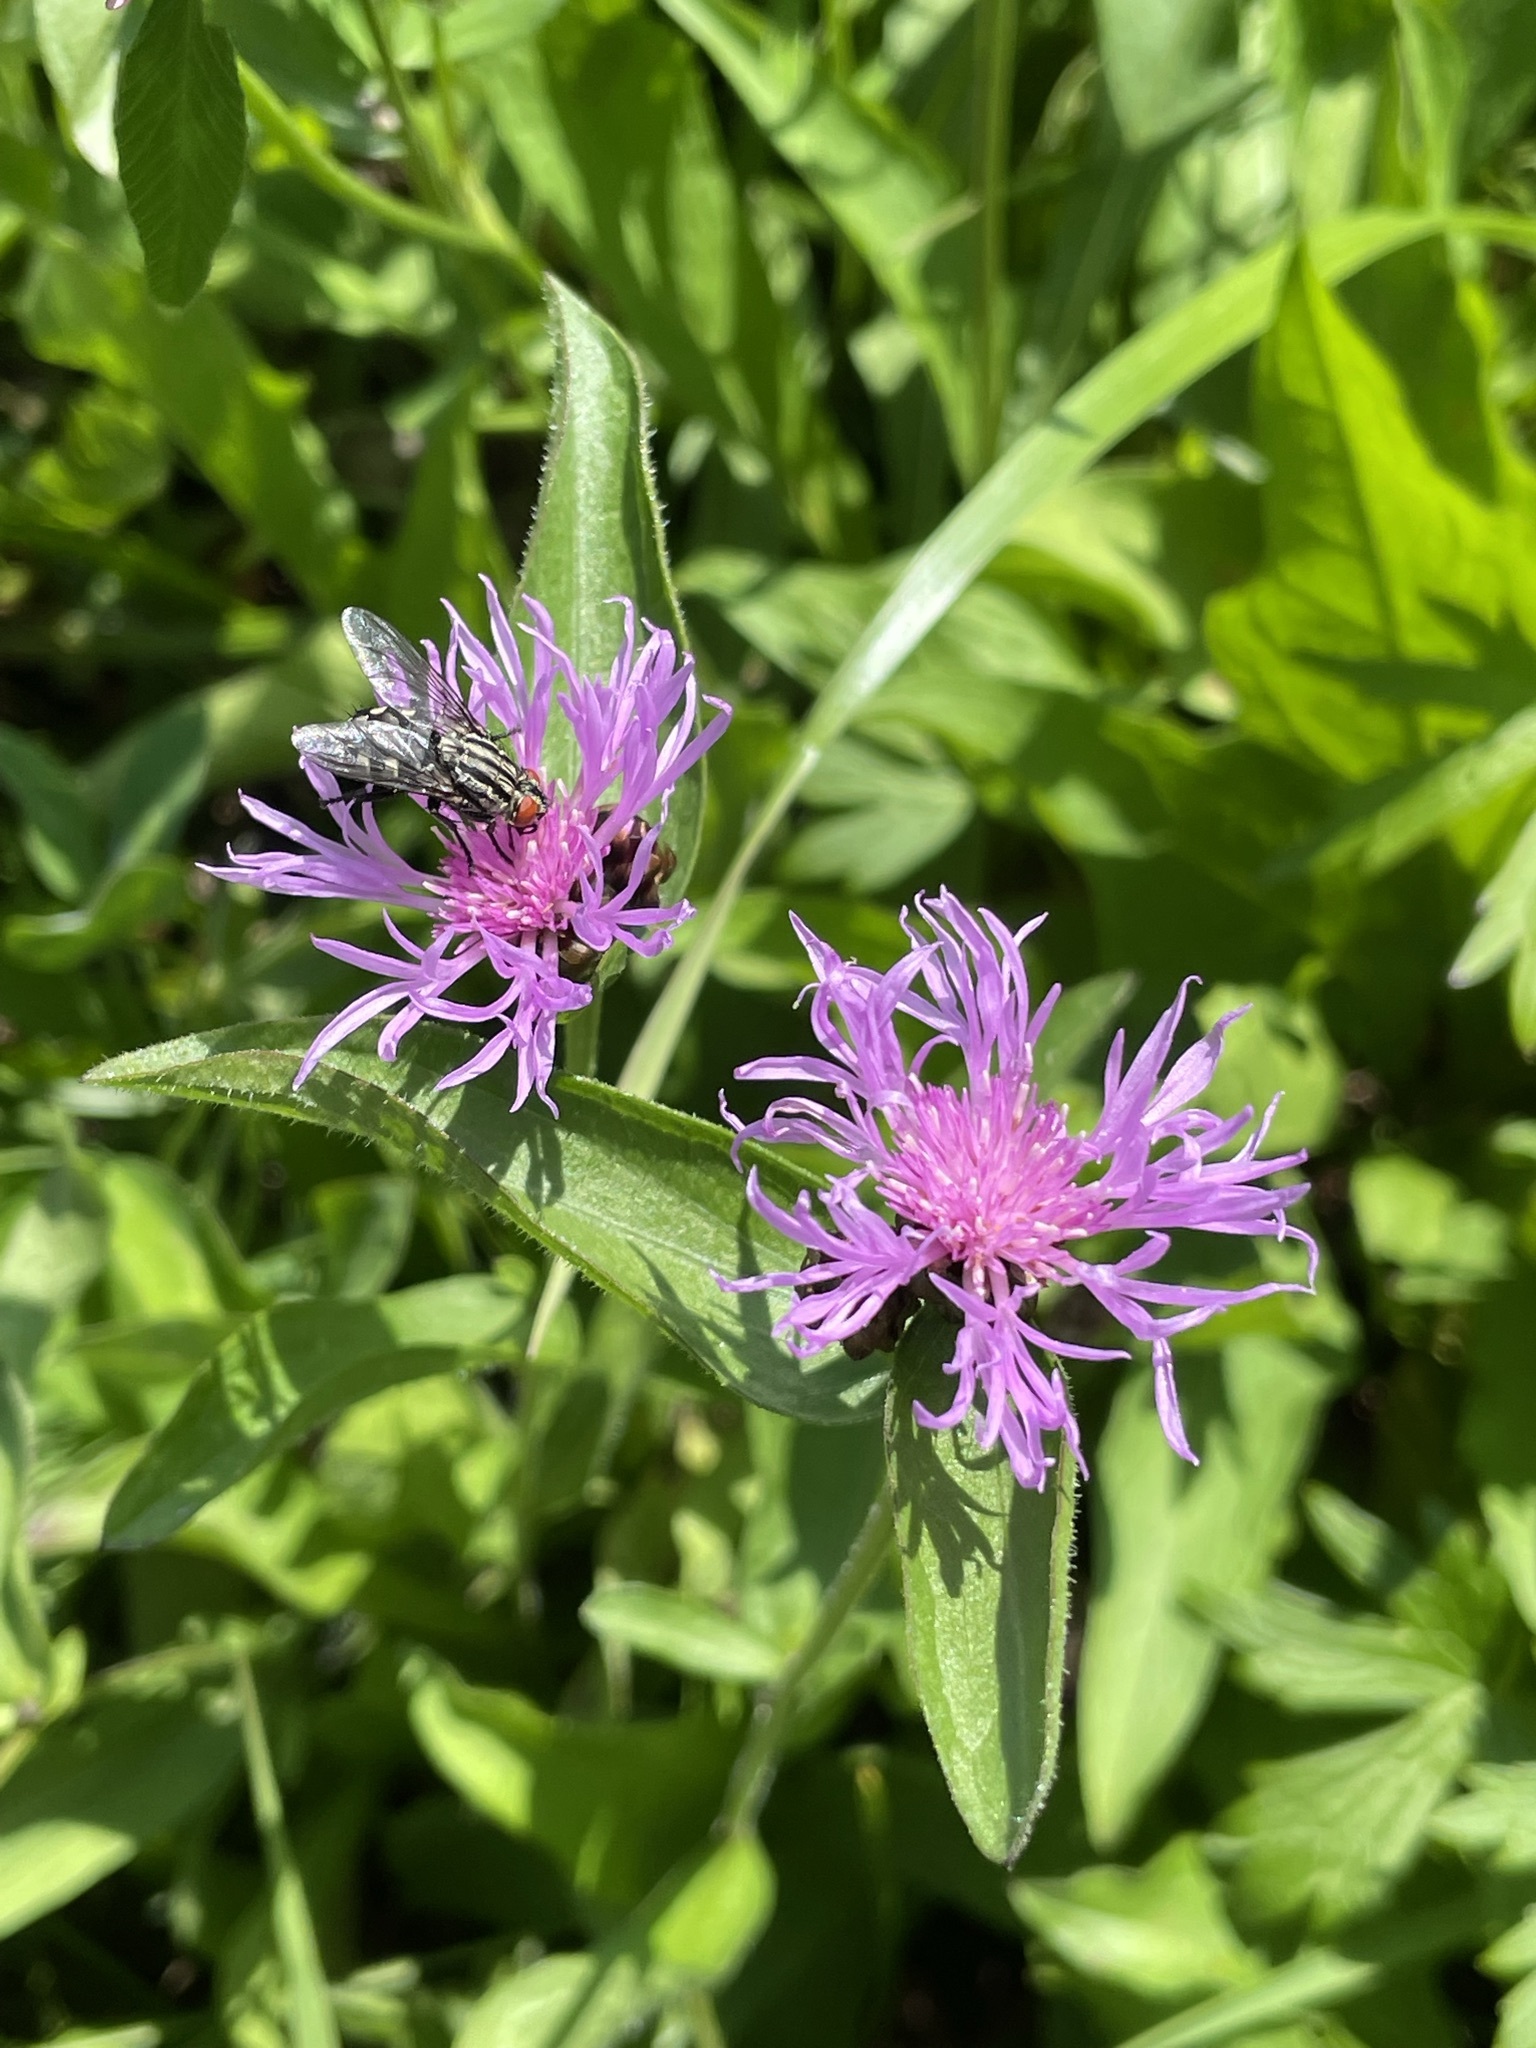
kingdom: Plantae
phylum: Tracheophyta
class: Magnoliopsida
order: Asterales
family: Asteraceae
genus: Centaurea
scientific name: Centaurea jacea
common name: Brown knapweed
